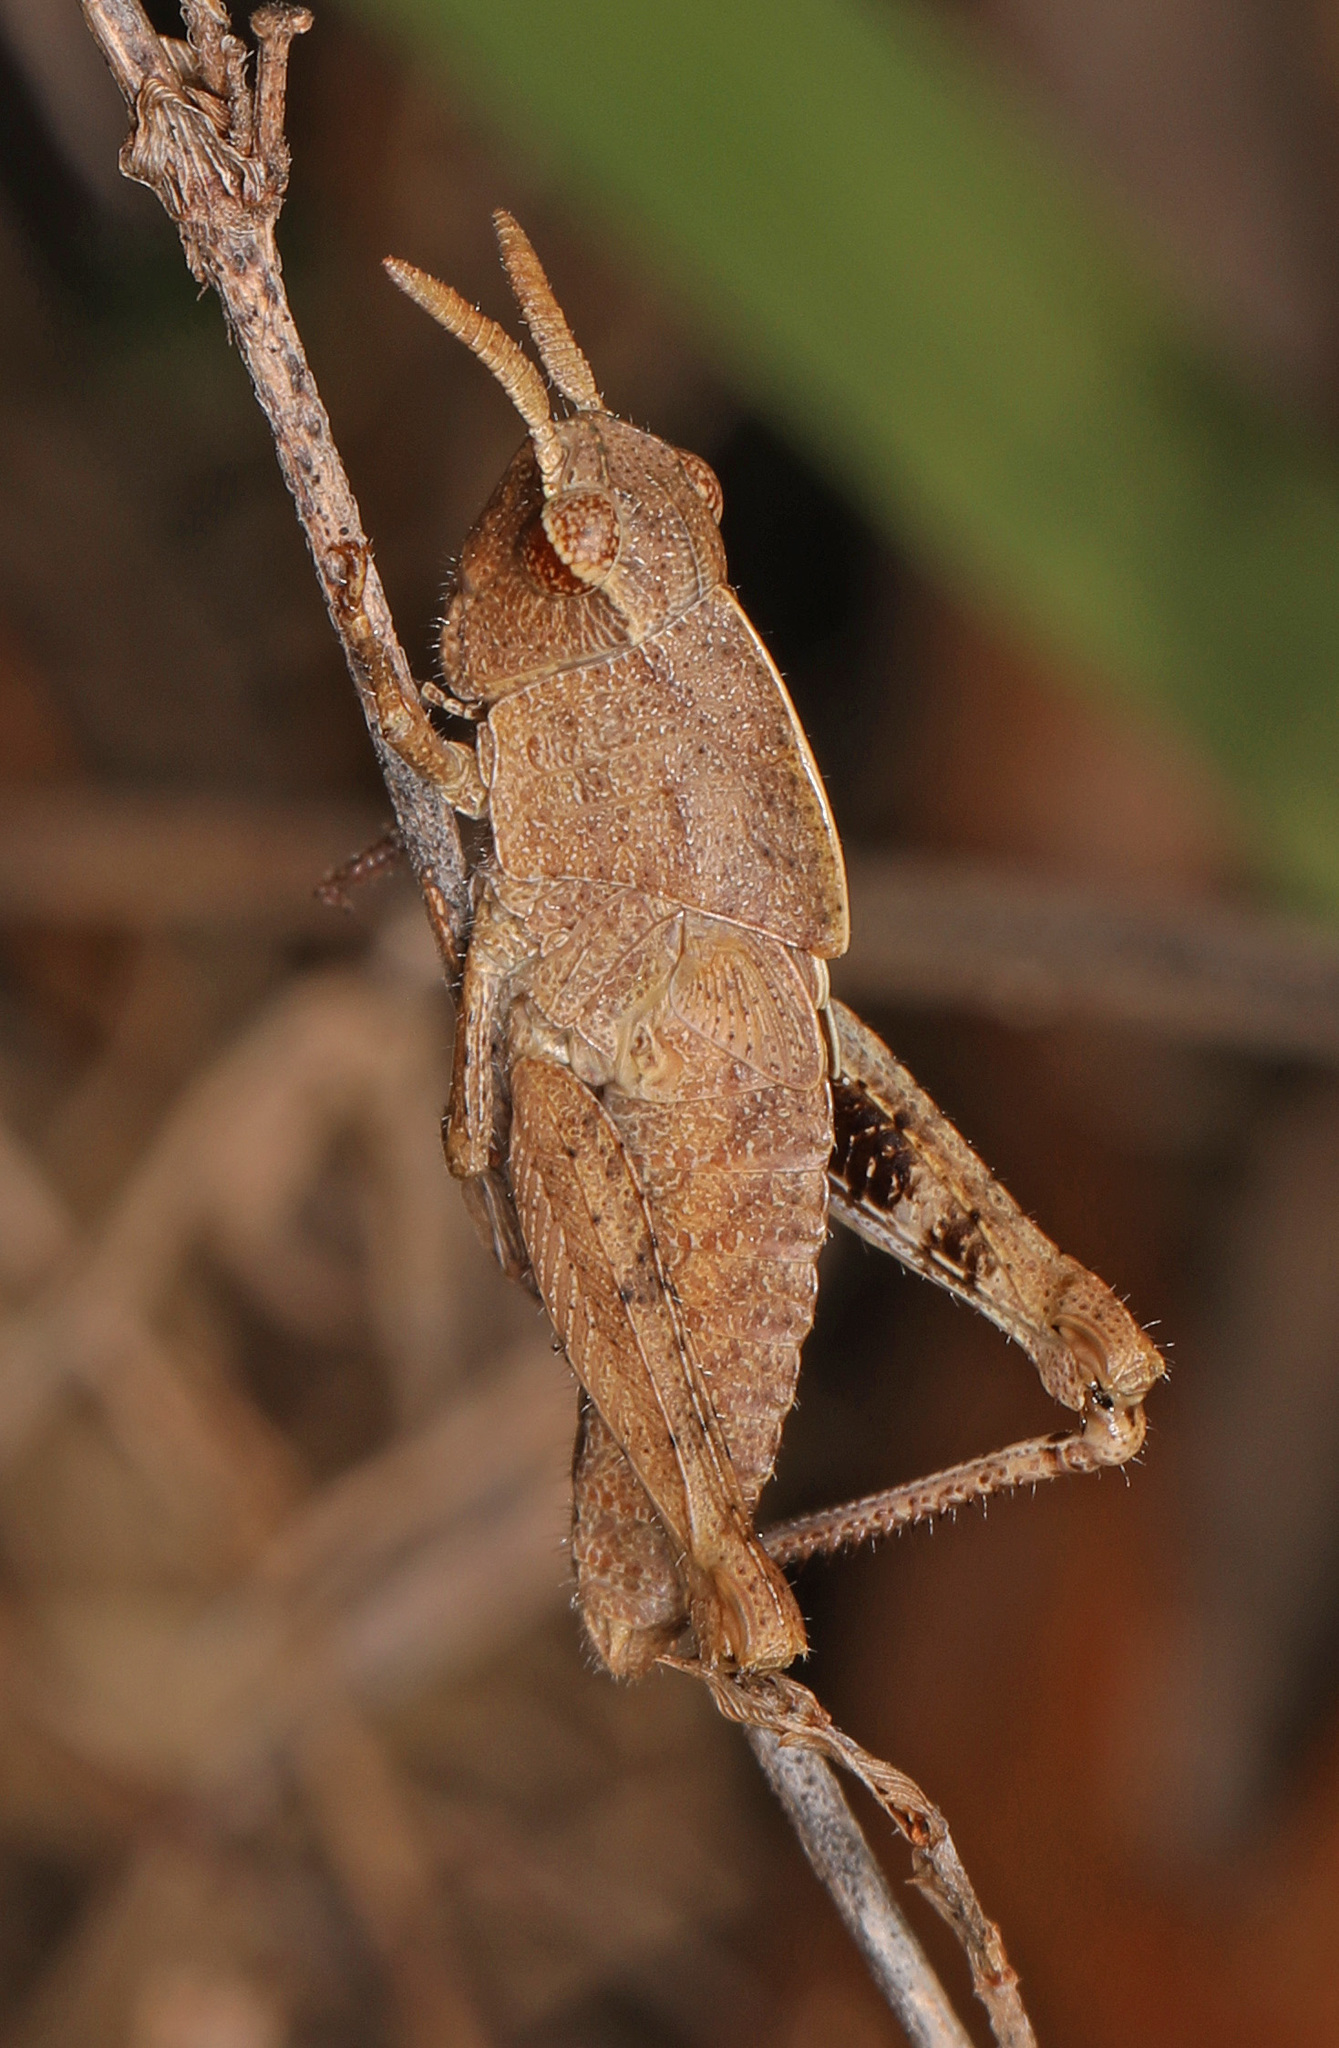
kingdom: Animalia
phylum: Arthropoda
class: Insecta
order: Orthoptera
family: Acrididae
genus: Chortophaga
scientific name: Chortophaga viridifasciata
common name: Green-striped grasshopper
